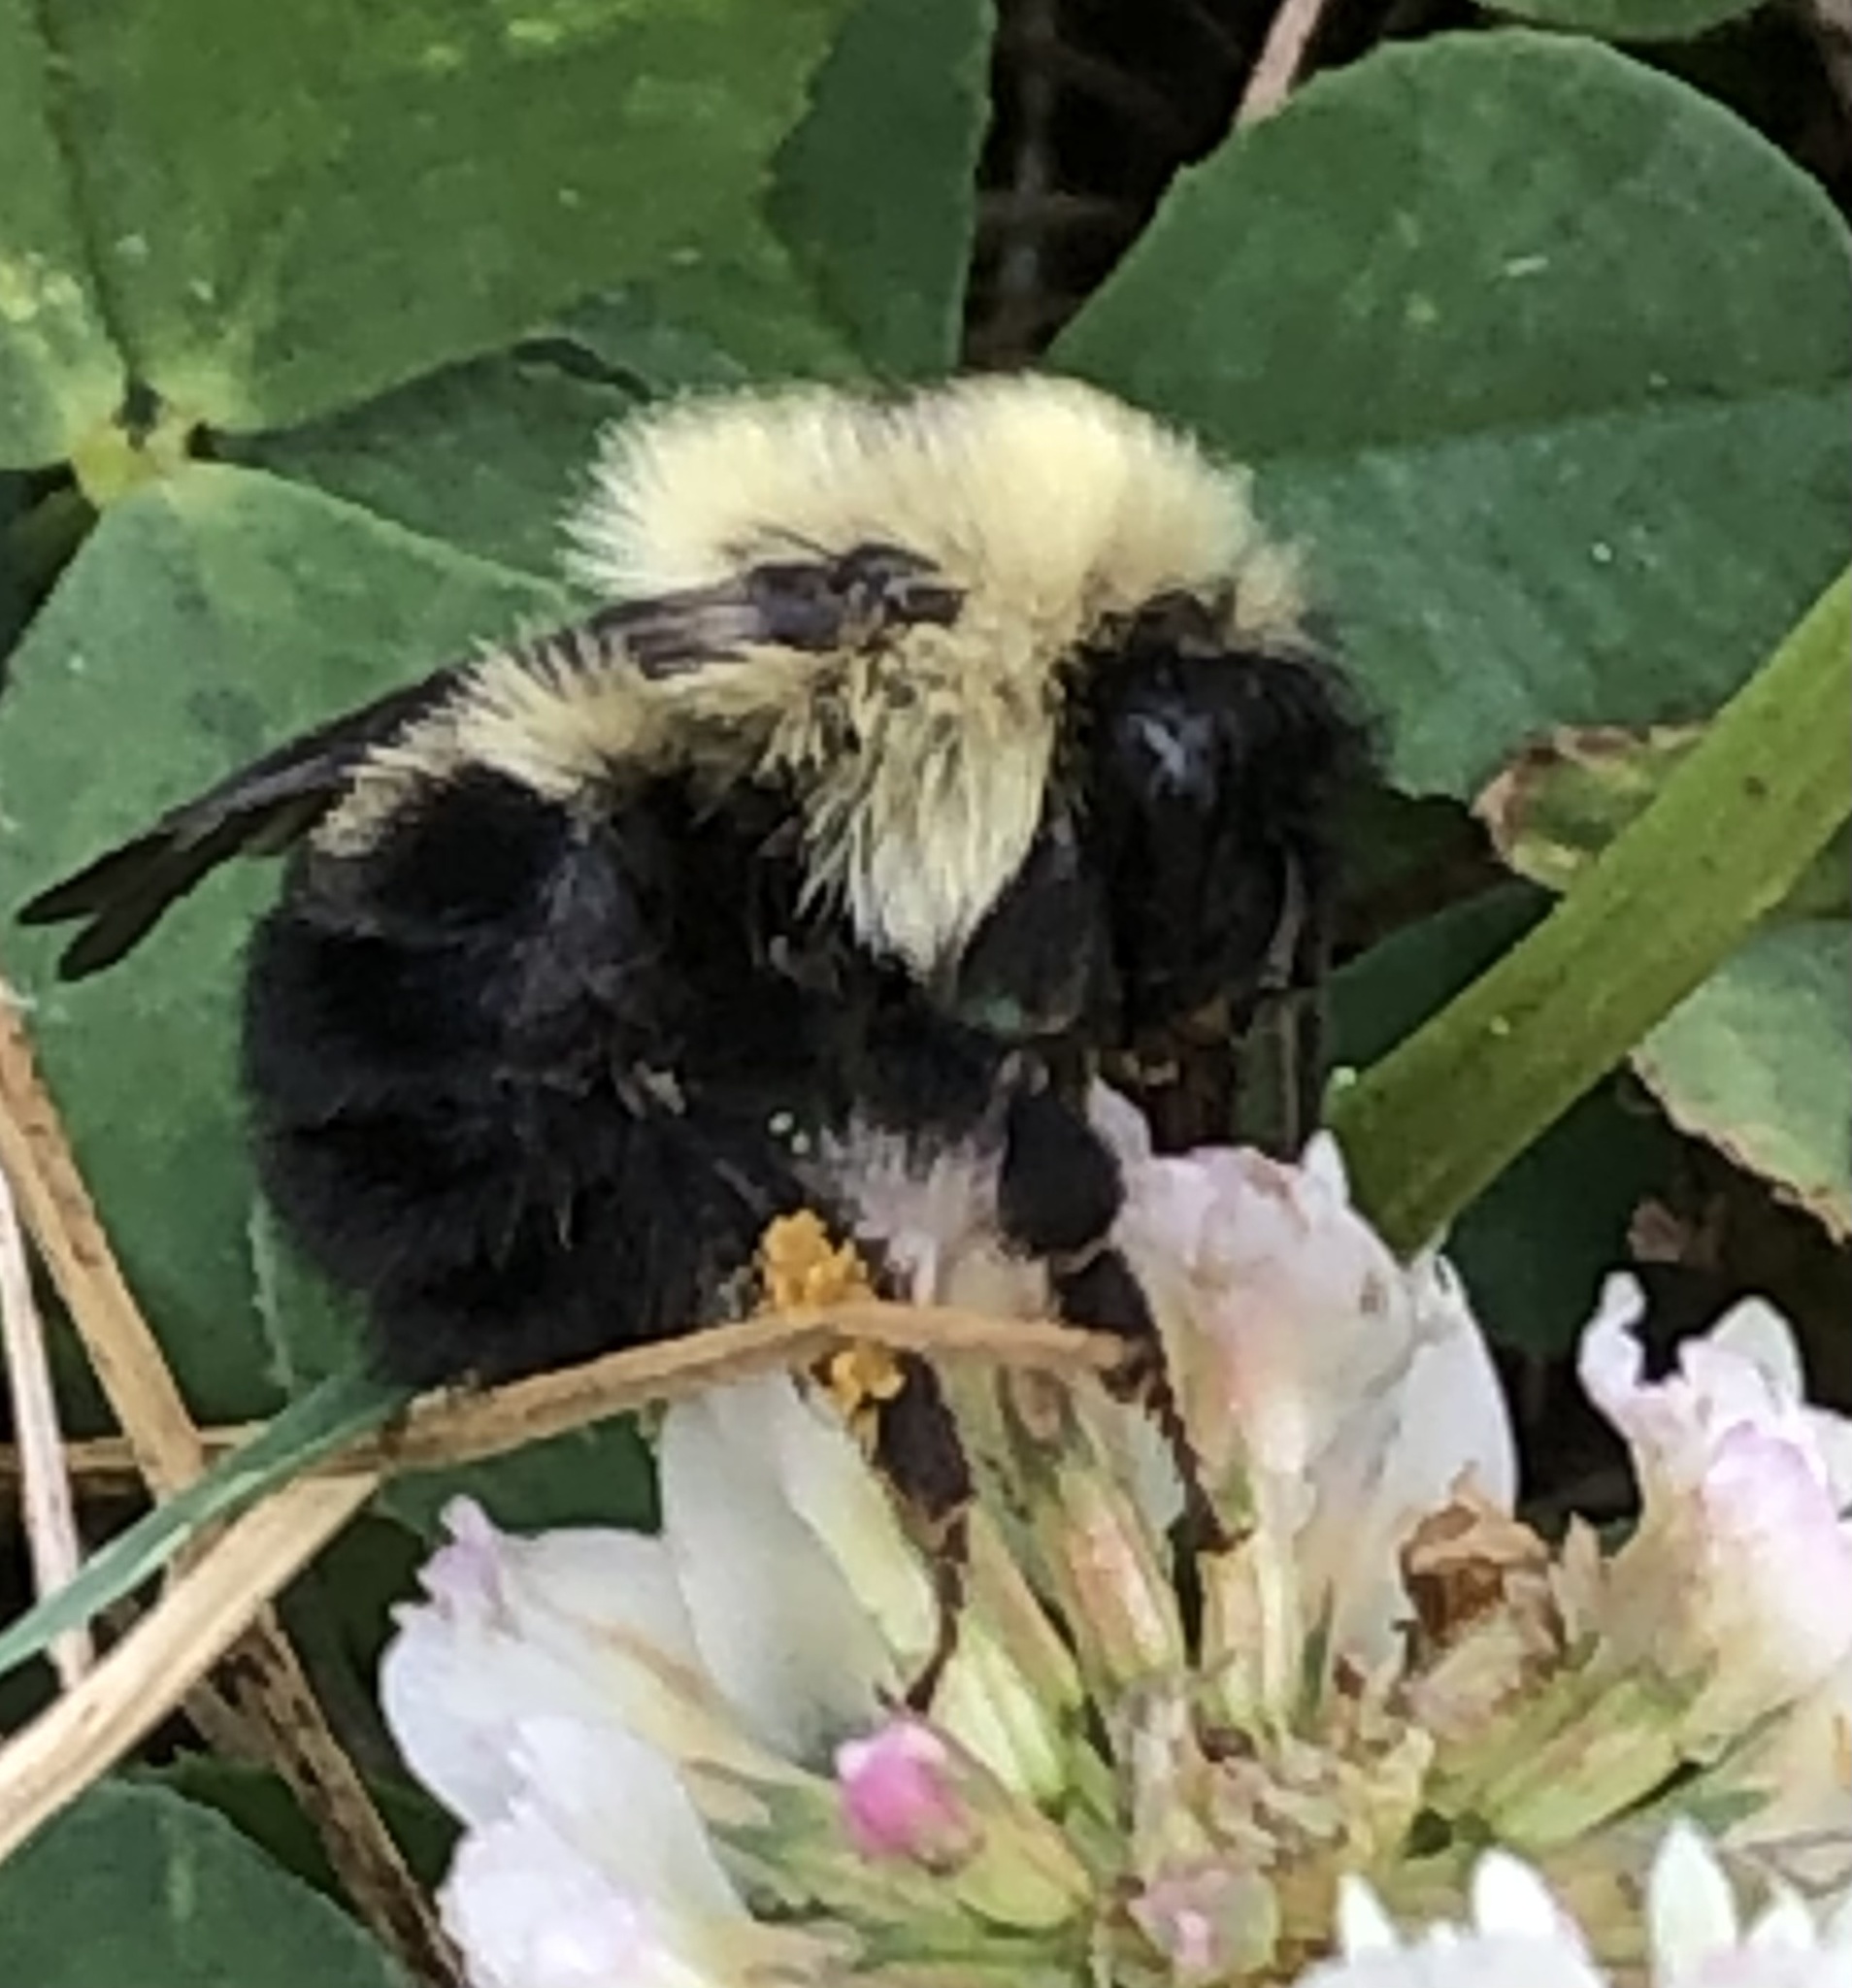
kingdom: Animalia
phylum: Arthropoda
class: Insecta
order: Hymenoptera
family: Apidae
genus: Bombus
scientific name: Bombus bimaculatus
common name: Two-spotted bumble bee
